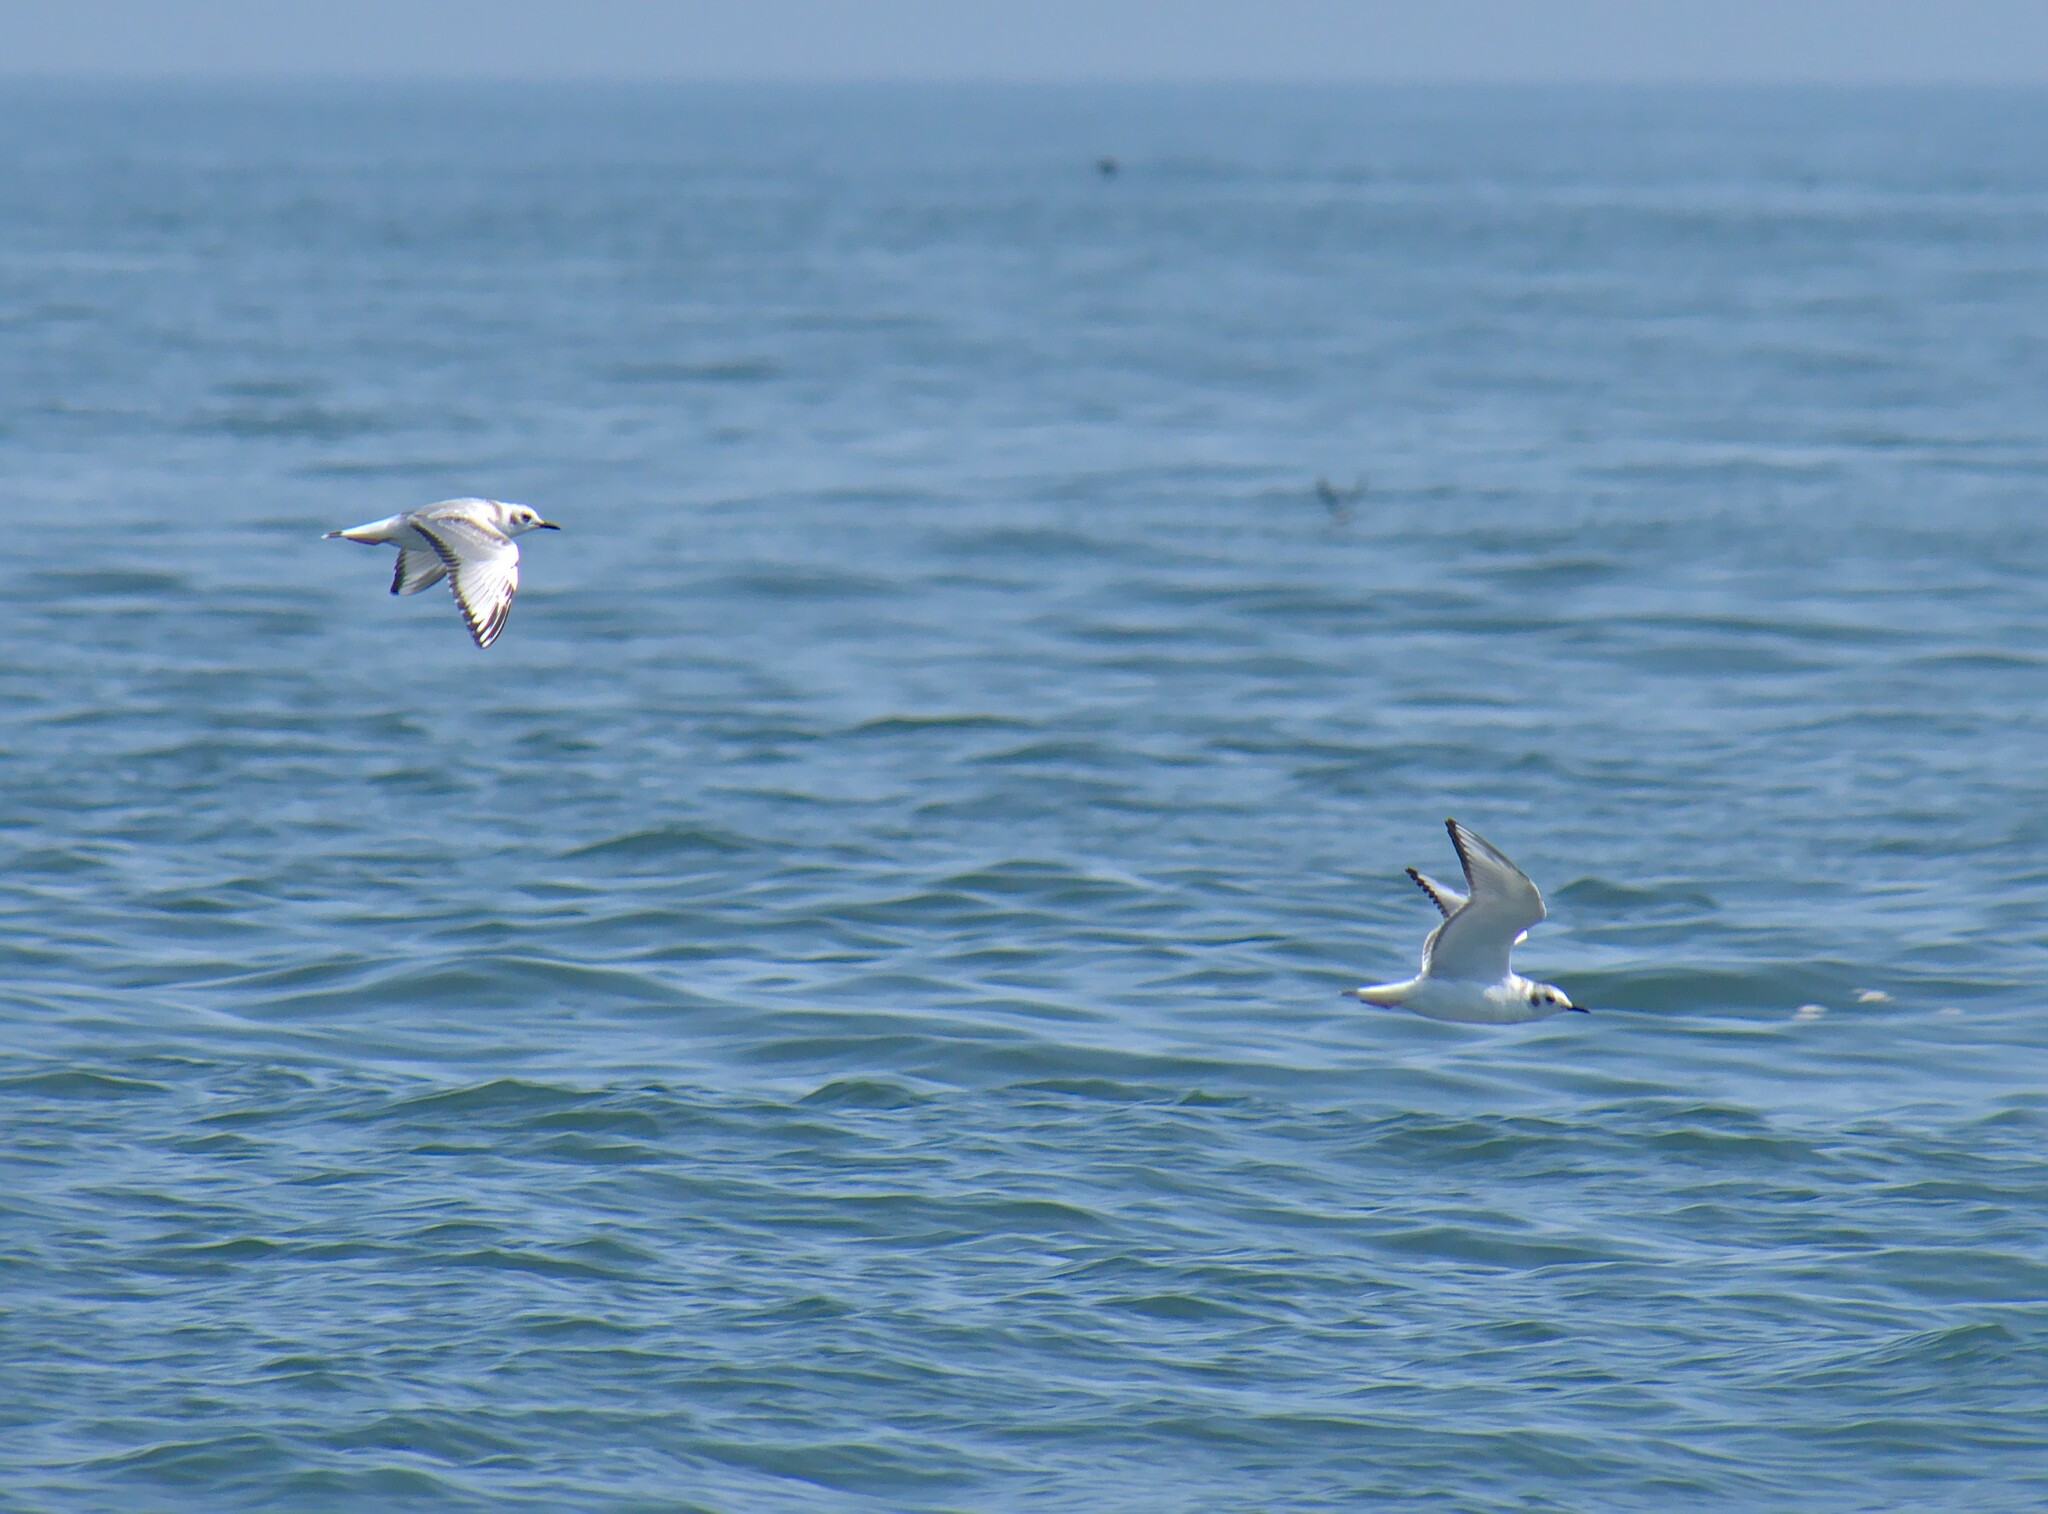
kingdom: Animalia
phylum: Chordata
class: Aves
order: Charadriiformes
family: Laridae
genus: Chroicocephalus
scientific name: Chroicocephalus philadelphia
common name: Bonaparte's gull
